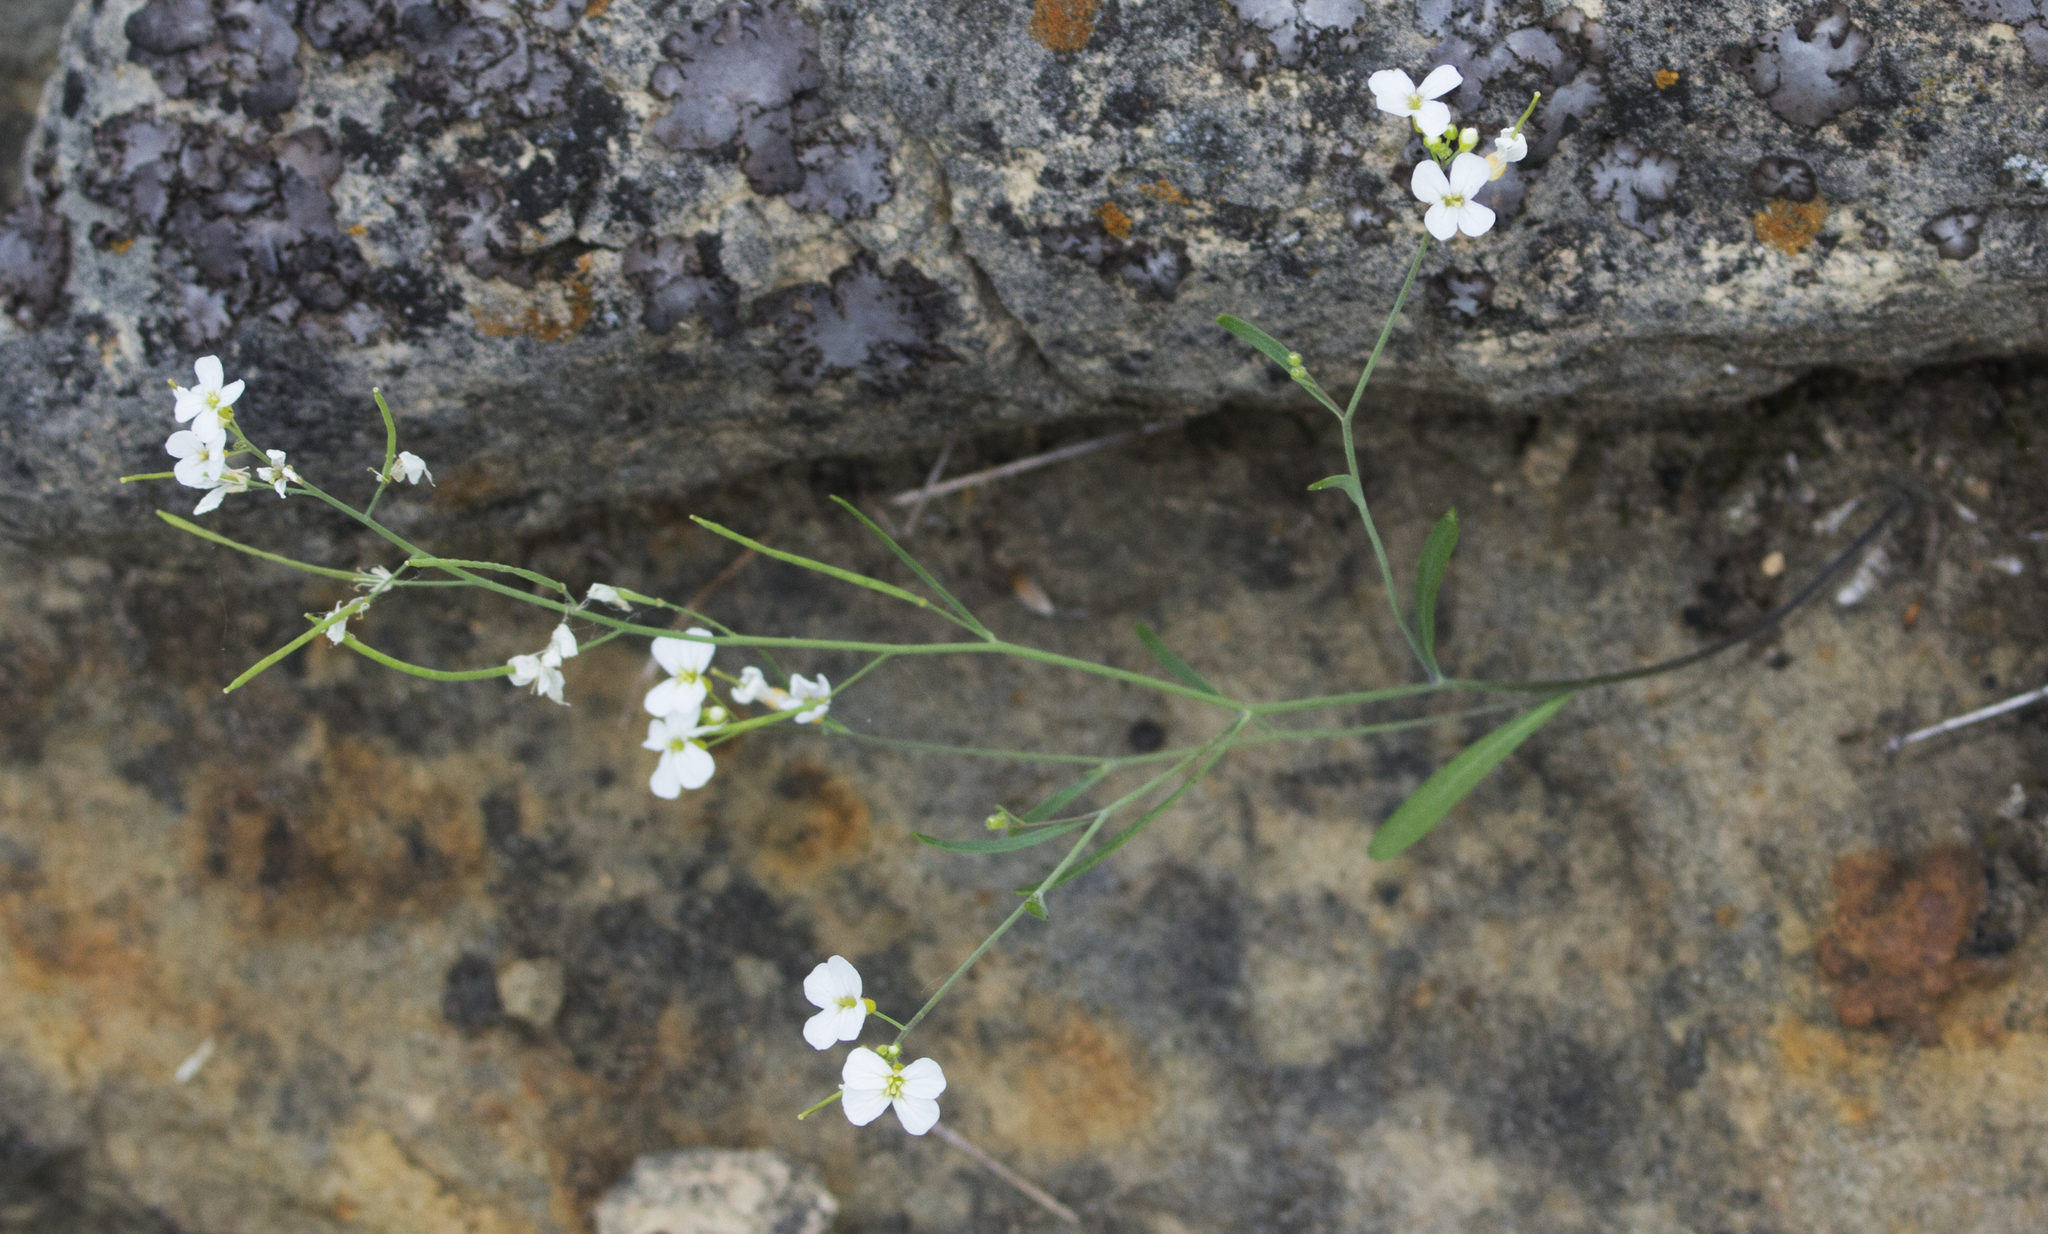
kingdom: Plantae
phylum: Tracheophyta
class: Magnoliopsida
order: Brassicales
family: Brassicaceae
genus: Arabidopsis
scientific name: Arabidopsis lyrata
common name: Lyrate rockcress
